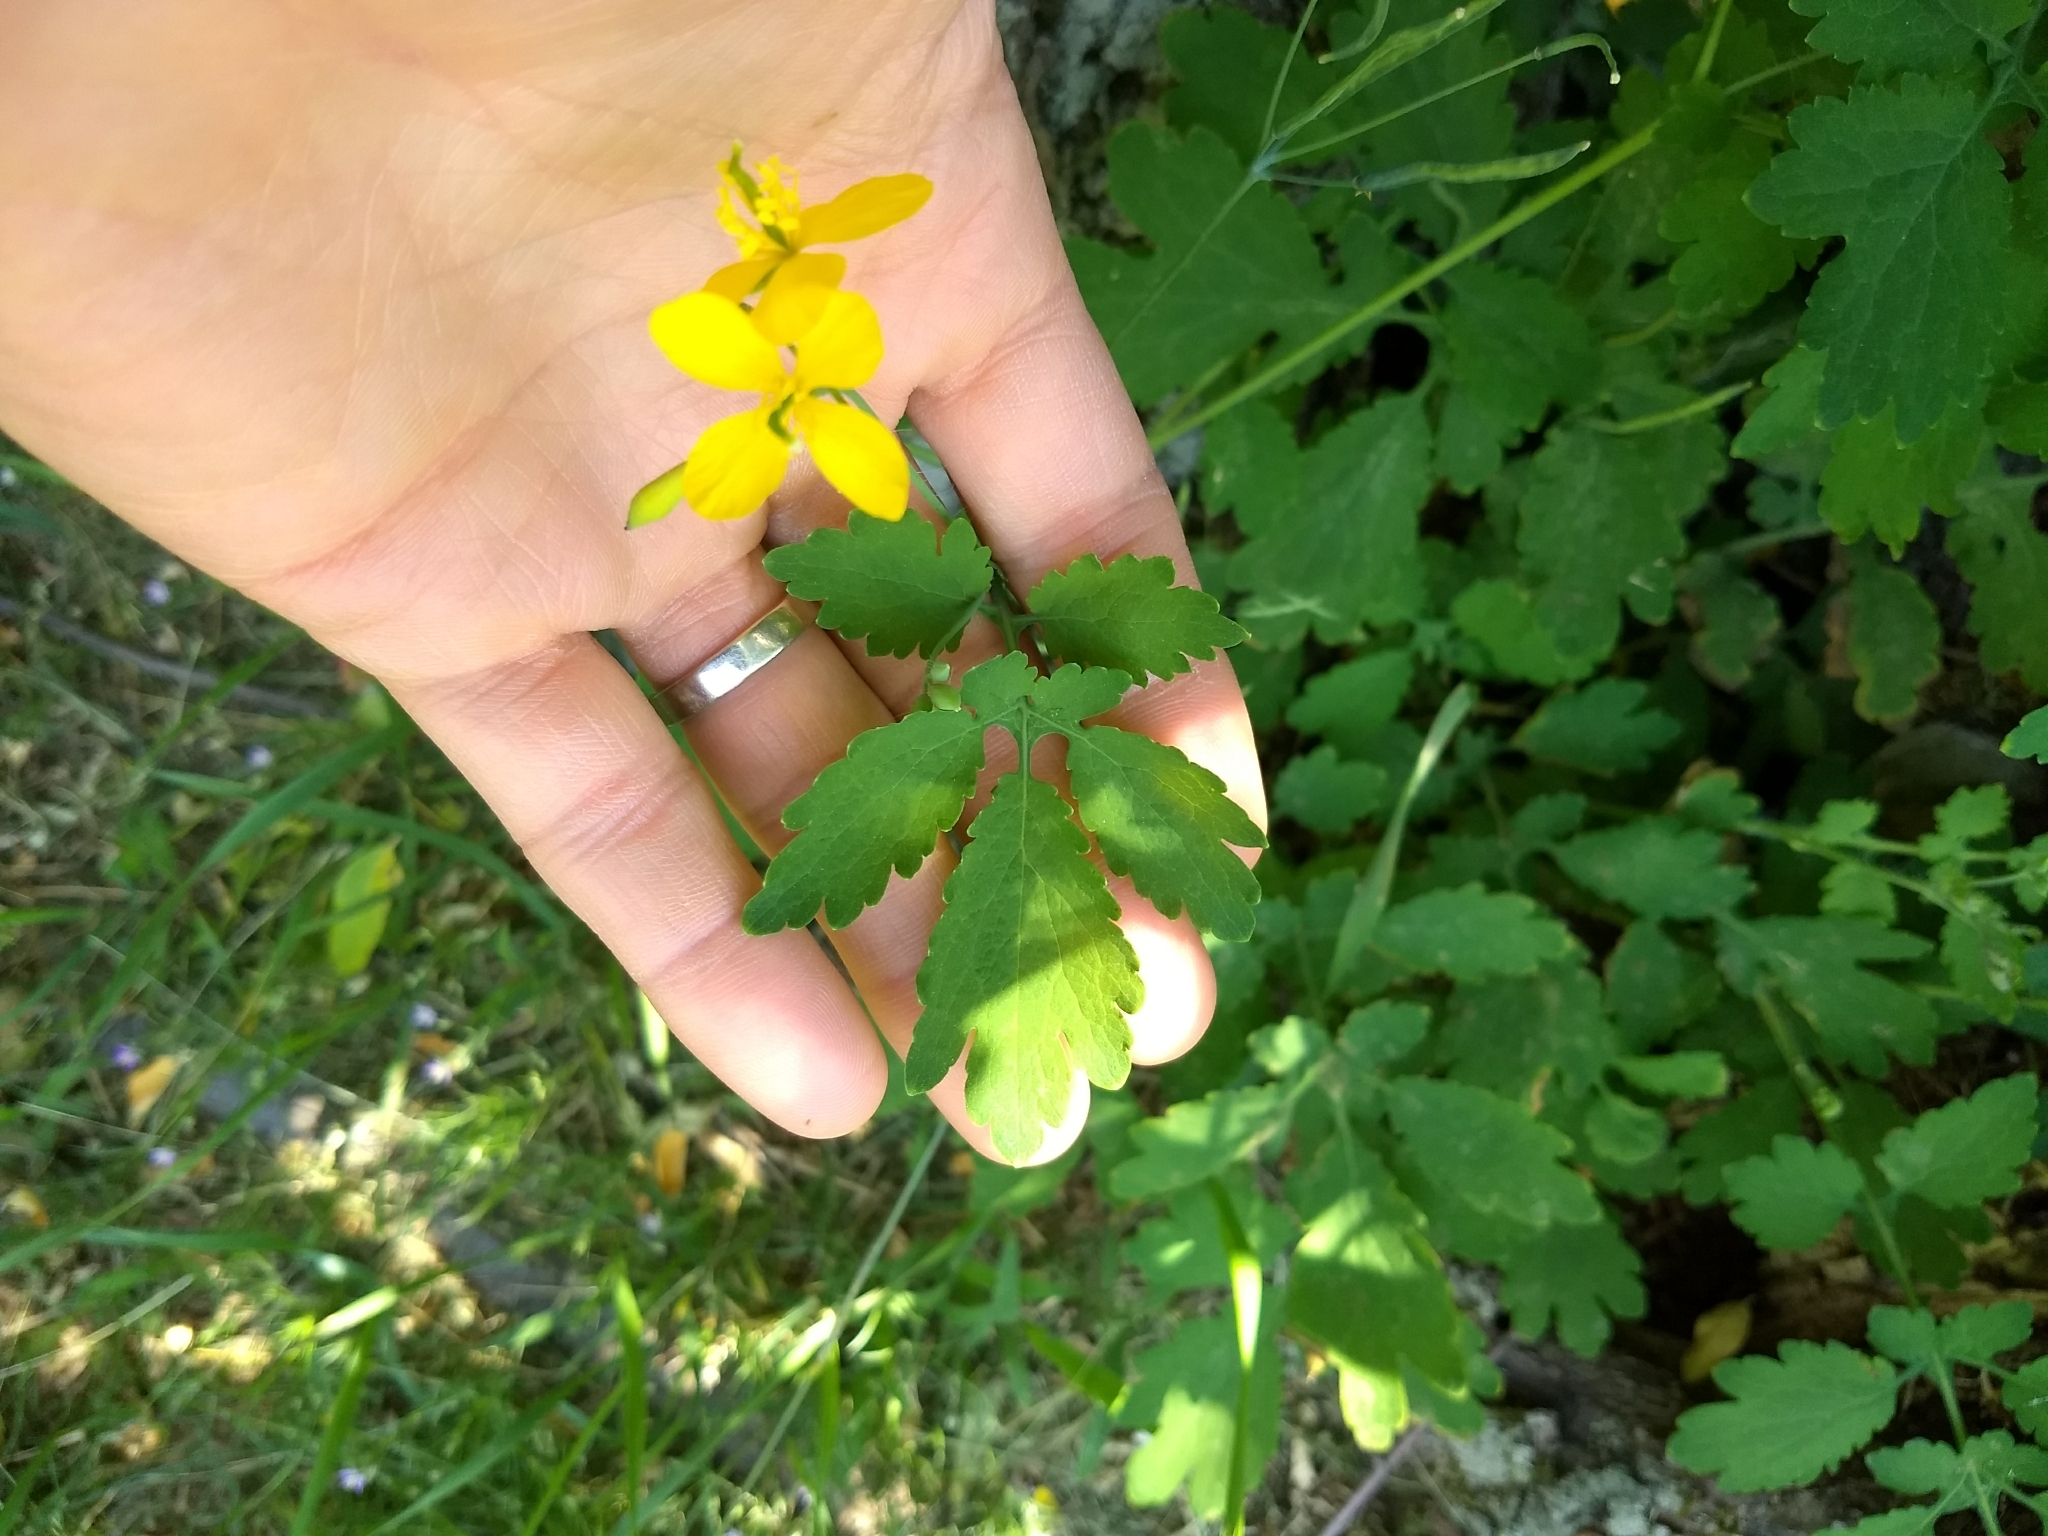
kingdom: Plantae
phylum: Tracheophyta
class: Magnoliopsida
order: Ranunculales
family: Papaveraceae
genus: Chelidonium
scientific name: Chelidonium majus
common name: Greater celandine
